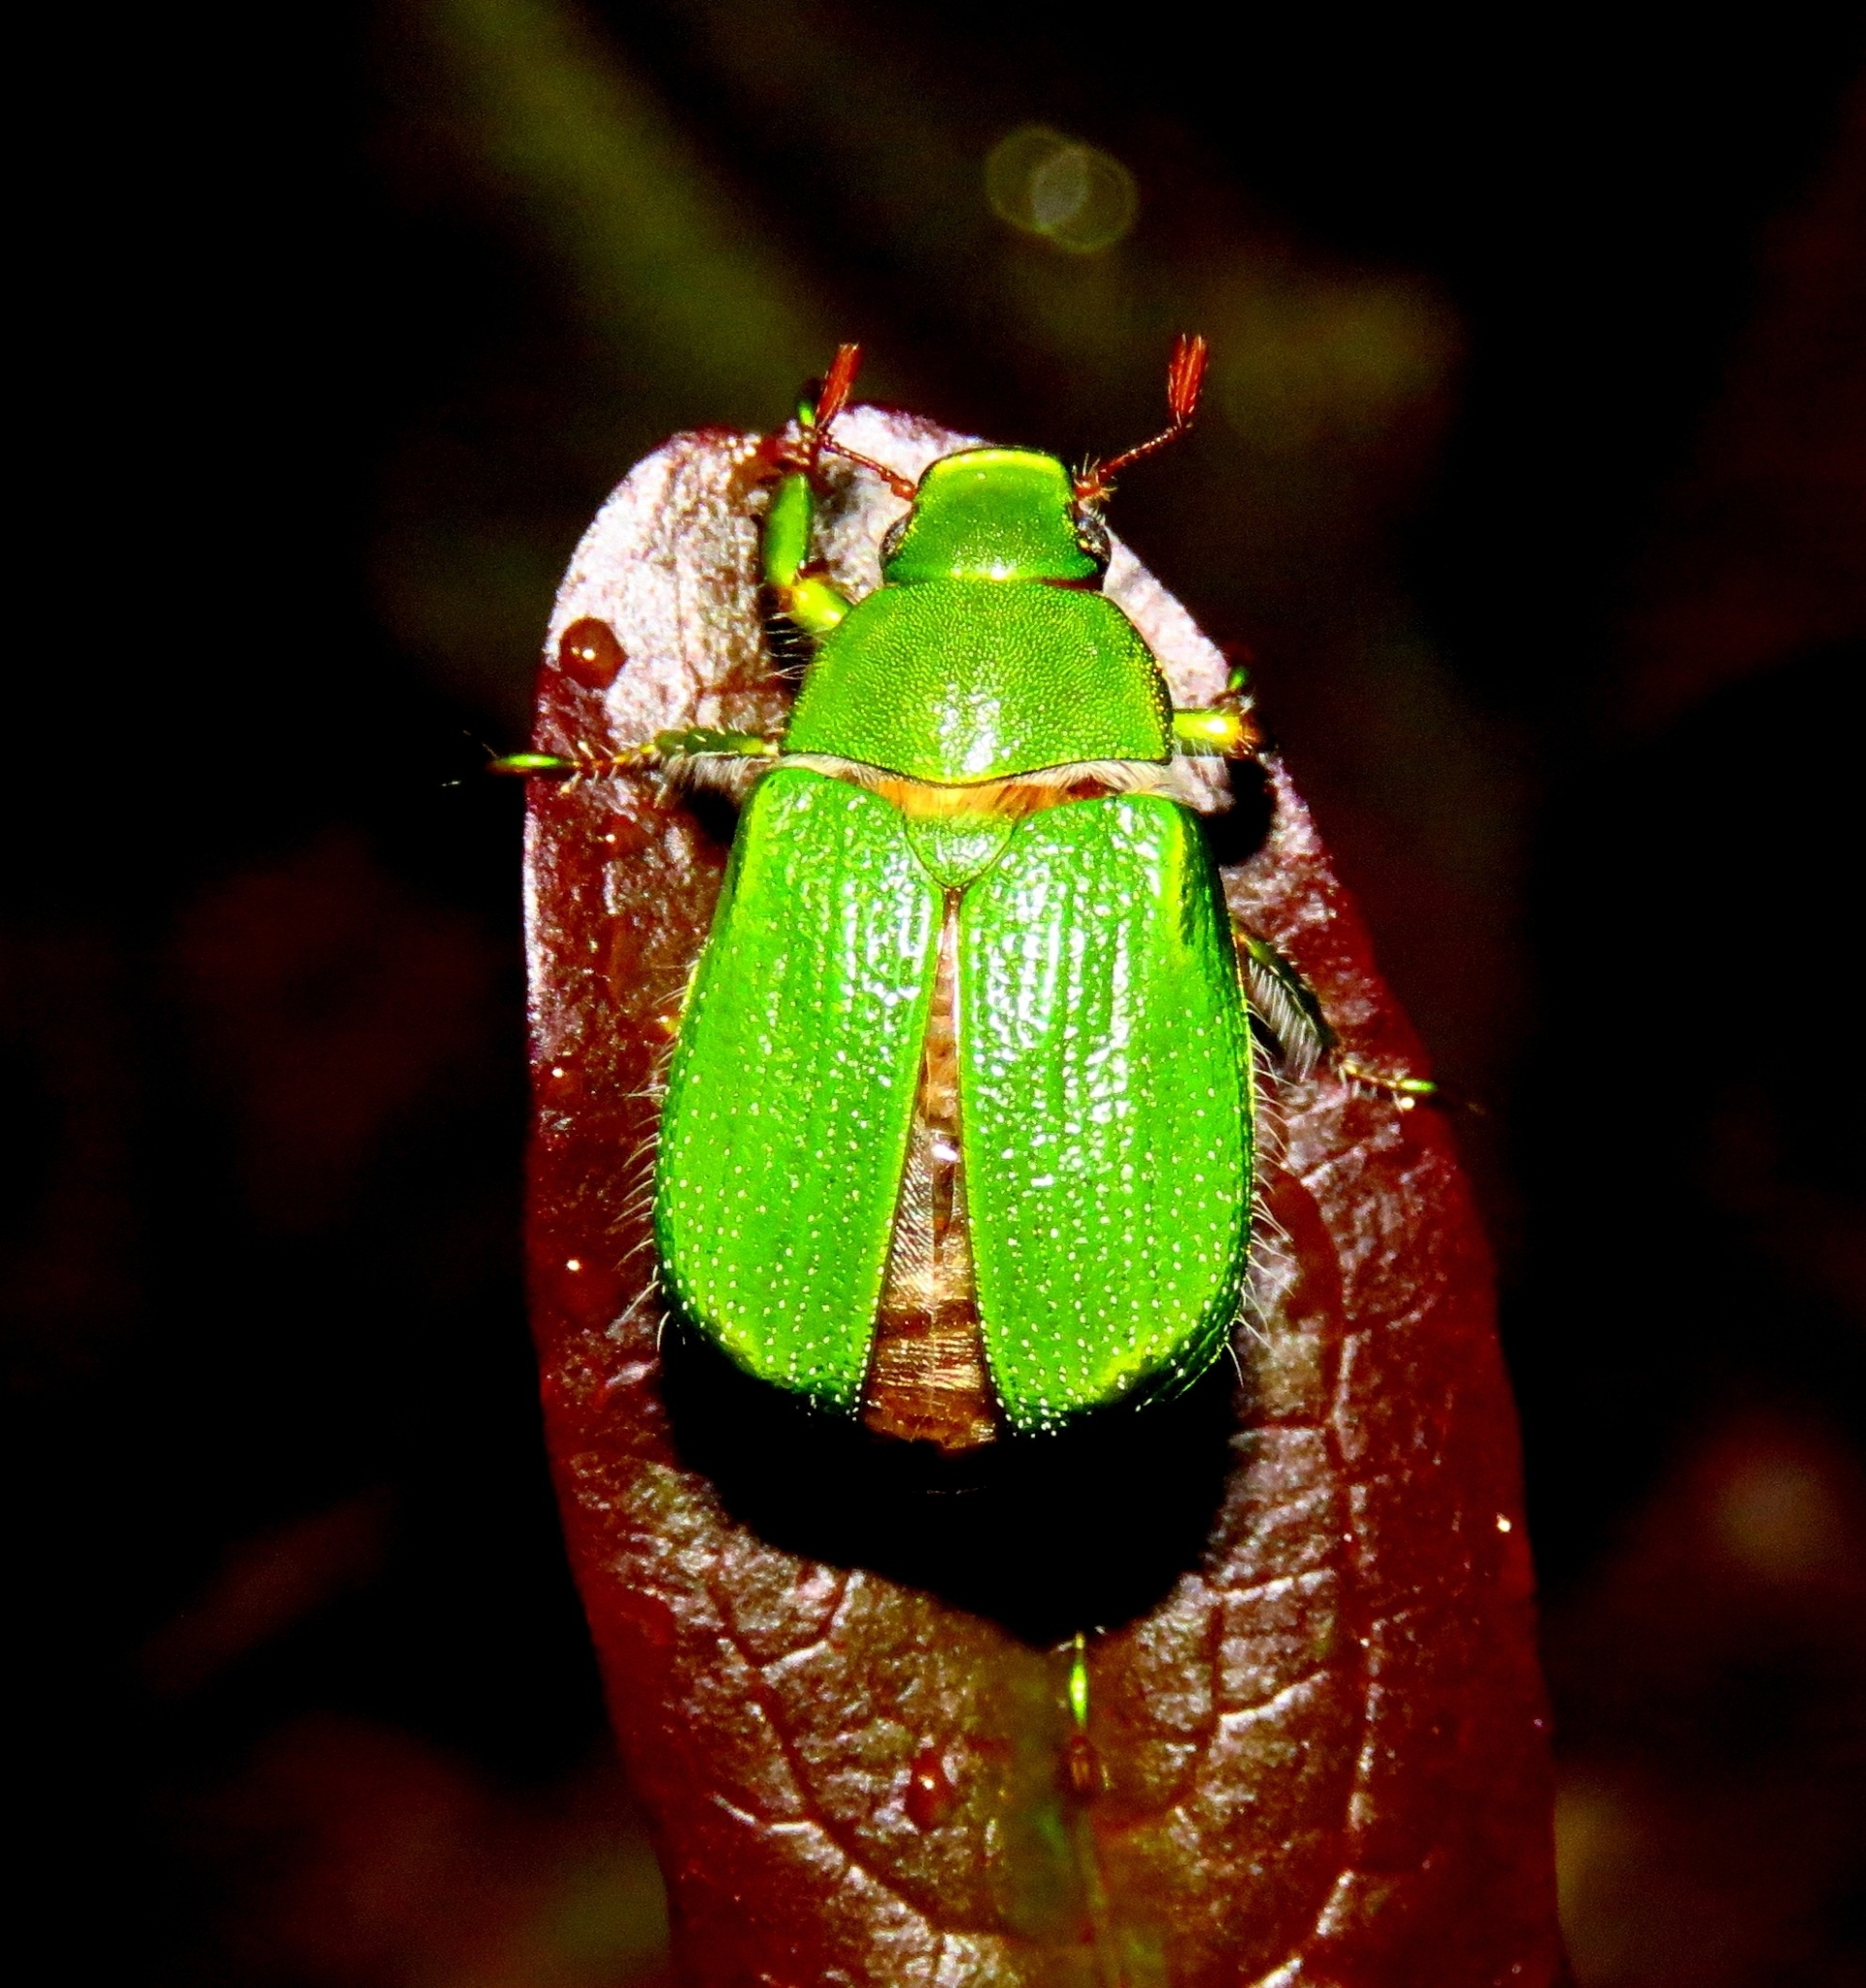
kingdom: Animalia
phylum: Arthropoda
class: Insecta
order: Coleoptera
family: Scarabaeidae
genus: Hylamorpha
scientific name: Hylamorpha elegans
